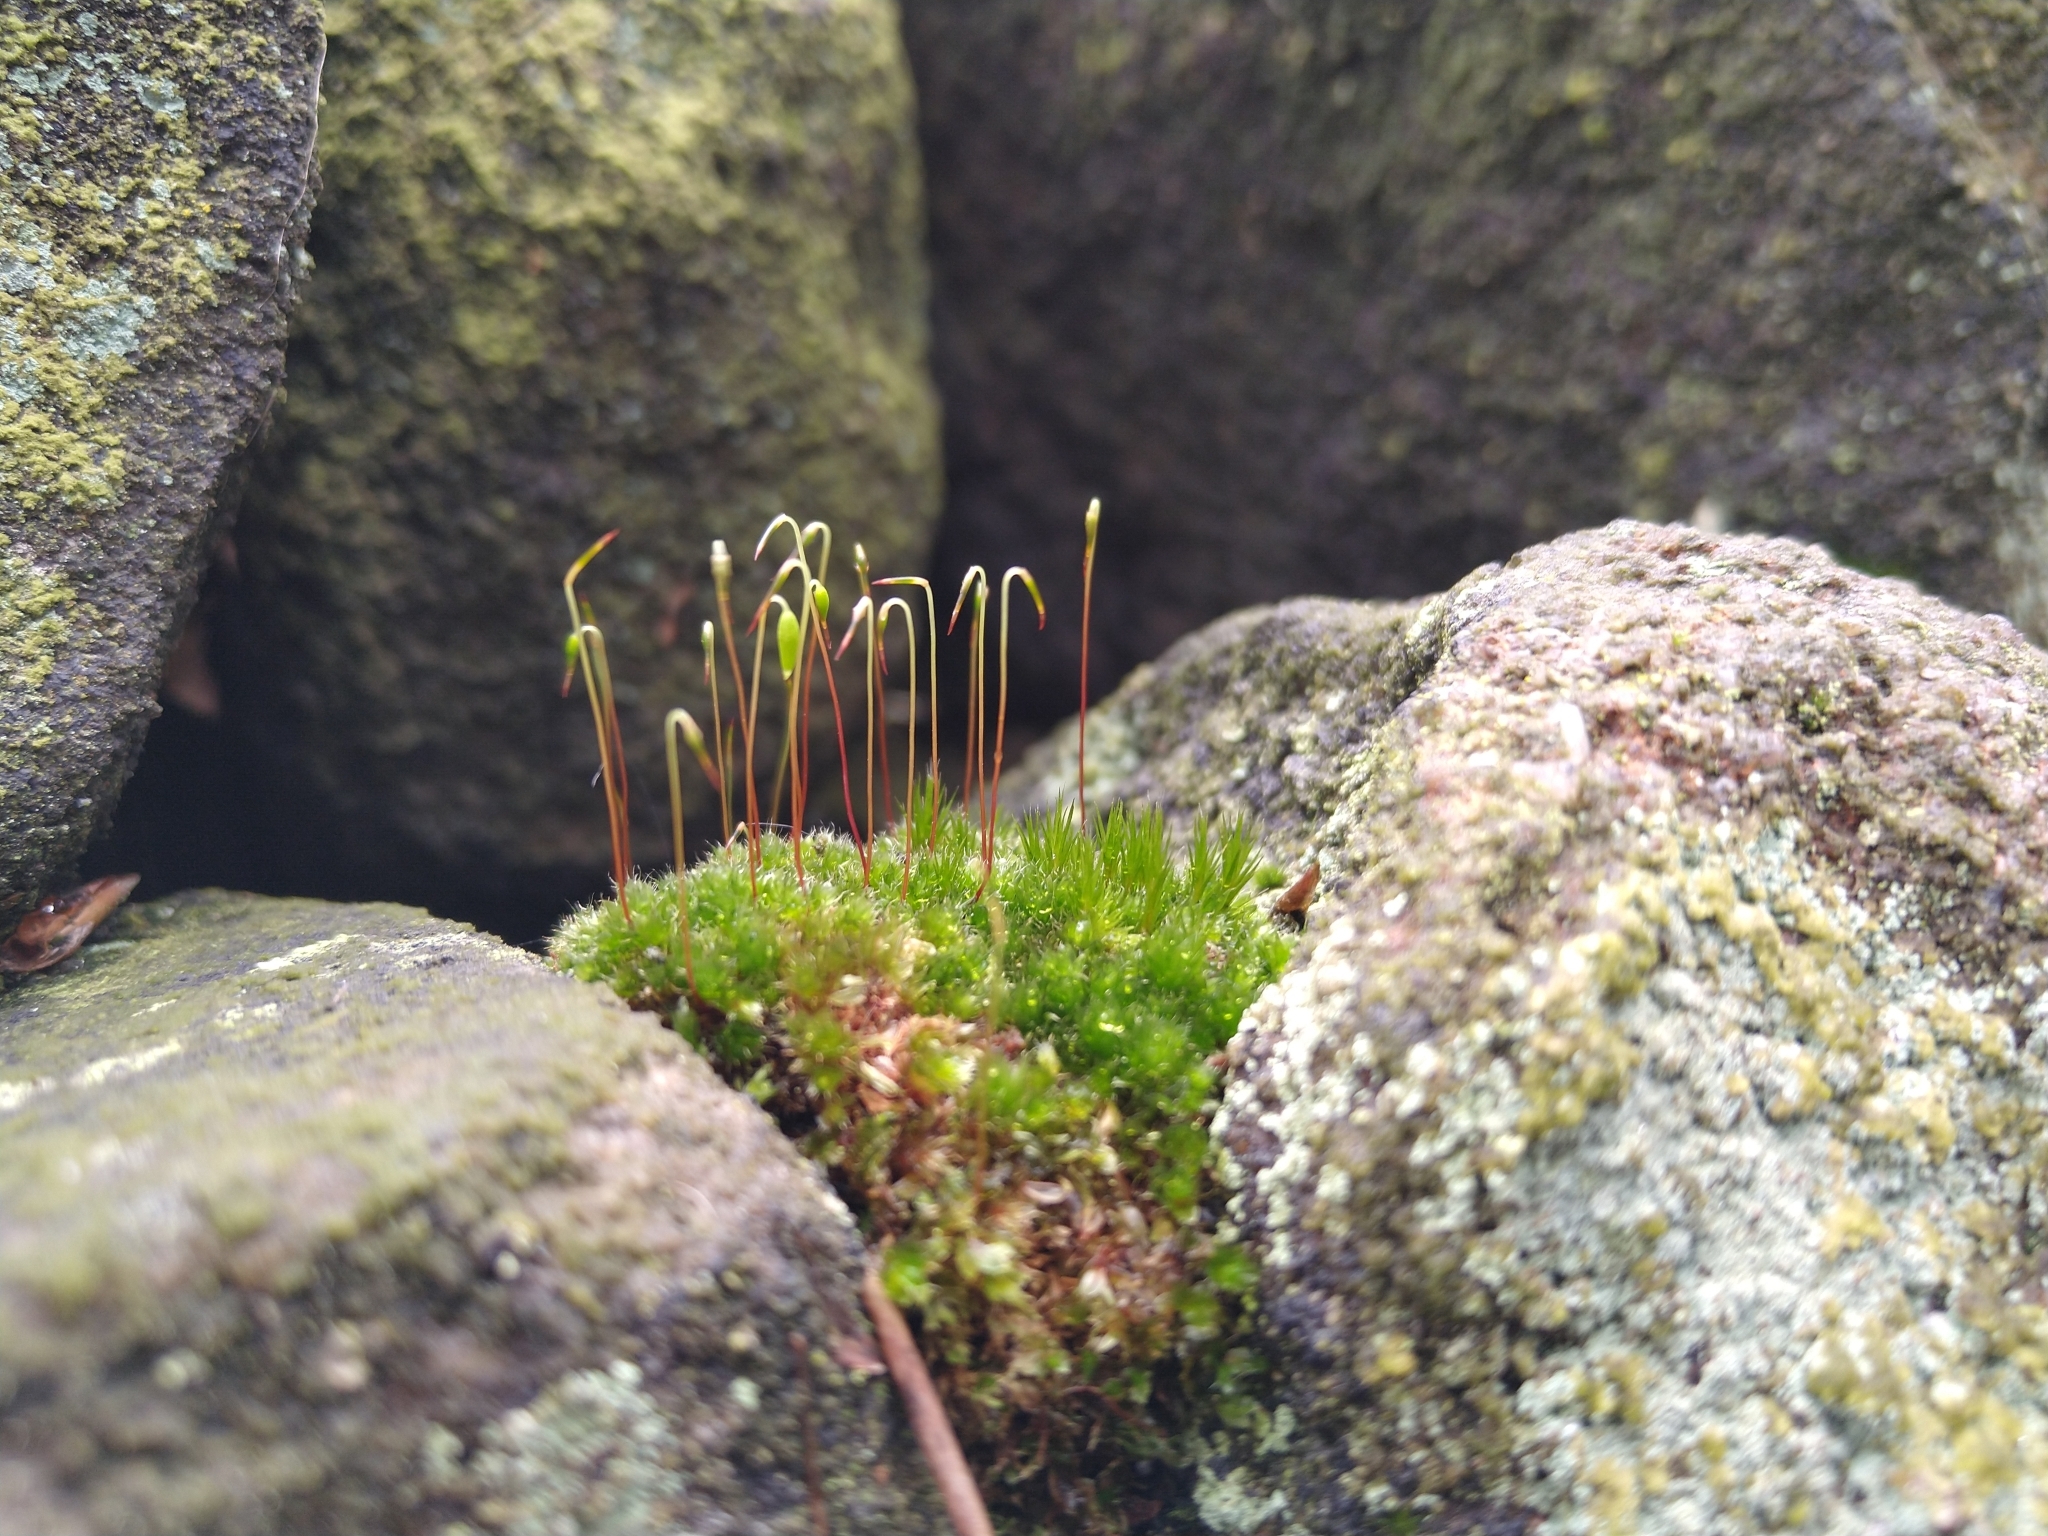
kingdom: Plantae
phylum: Bryophyta
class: Bryopsida
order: Bryales
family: Bryaceae
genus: Rosulabryum
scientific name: Rosulabryum capillare
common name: Capillary thread-moss
